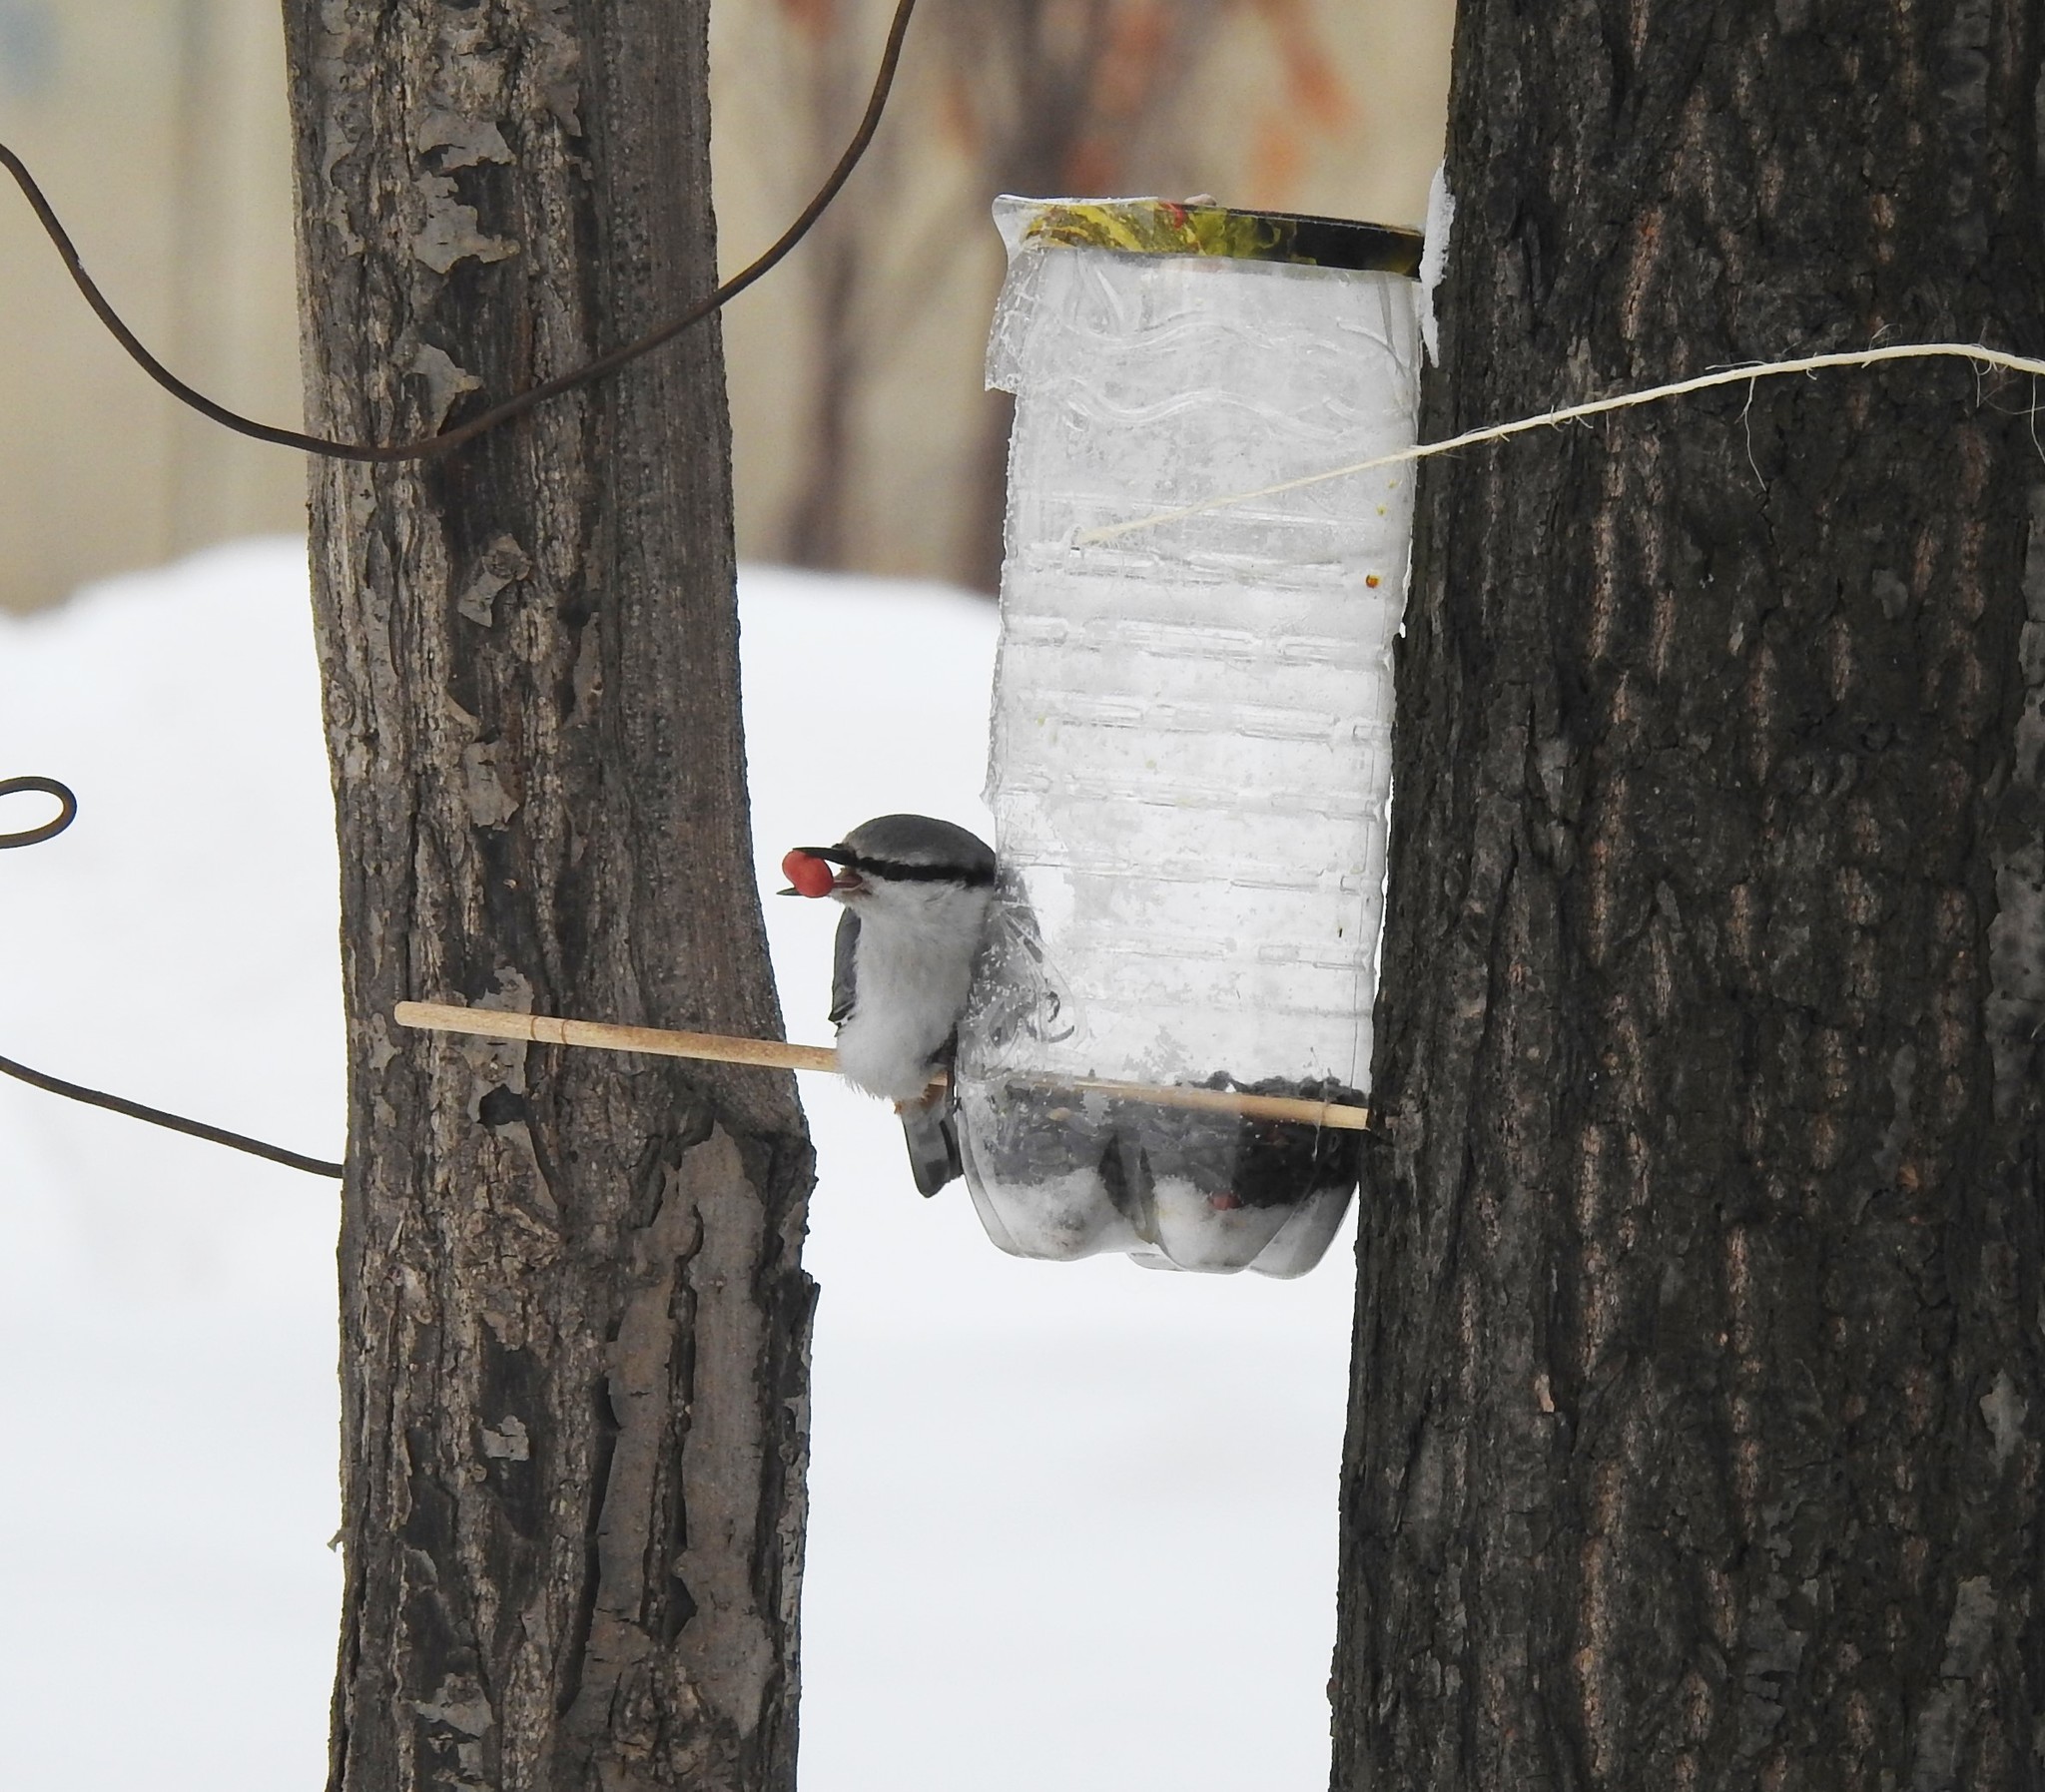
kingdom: Animalia
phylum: Chordata
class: Aves
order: Passeriformes
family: Sittidae
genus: Sitta
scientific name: Sitta europaea
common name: Eurasian nuthatch
